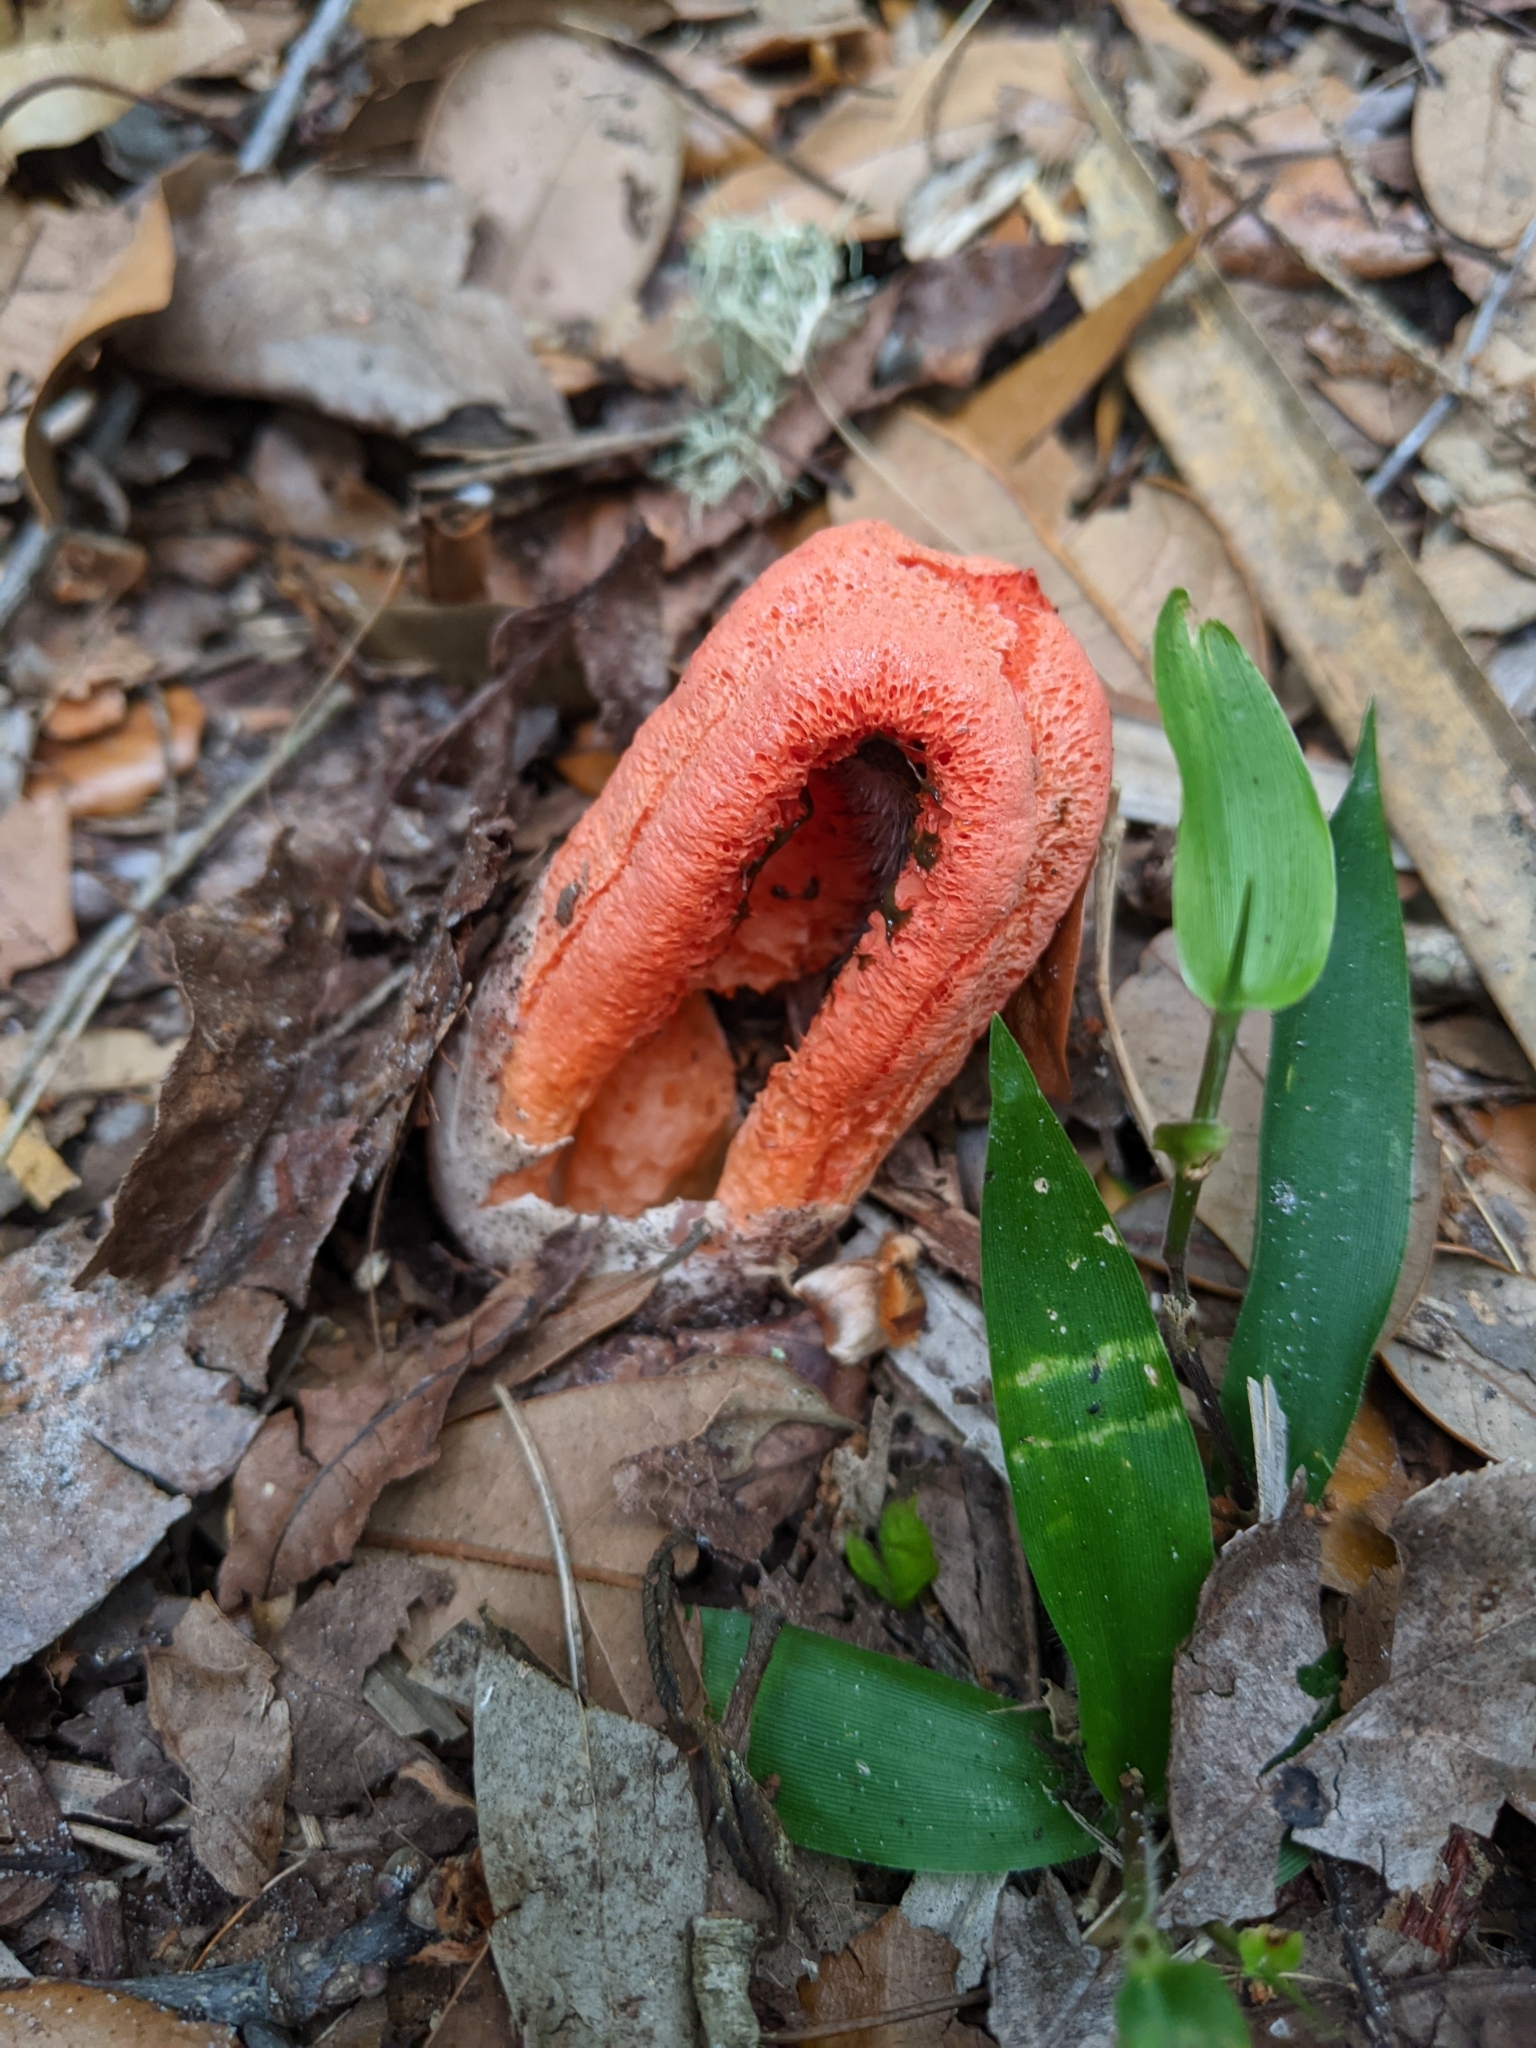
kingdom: Fungi
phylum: Basidiomycota
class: Agaricomycetes
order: Phallales
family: Phallaceae
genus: Clathrus
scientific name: Clathrus columnatus
